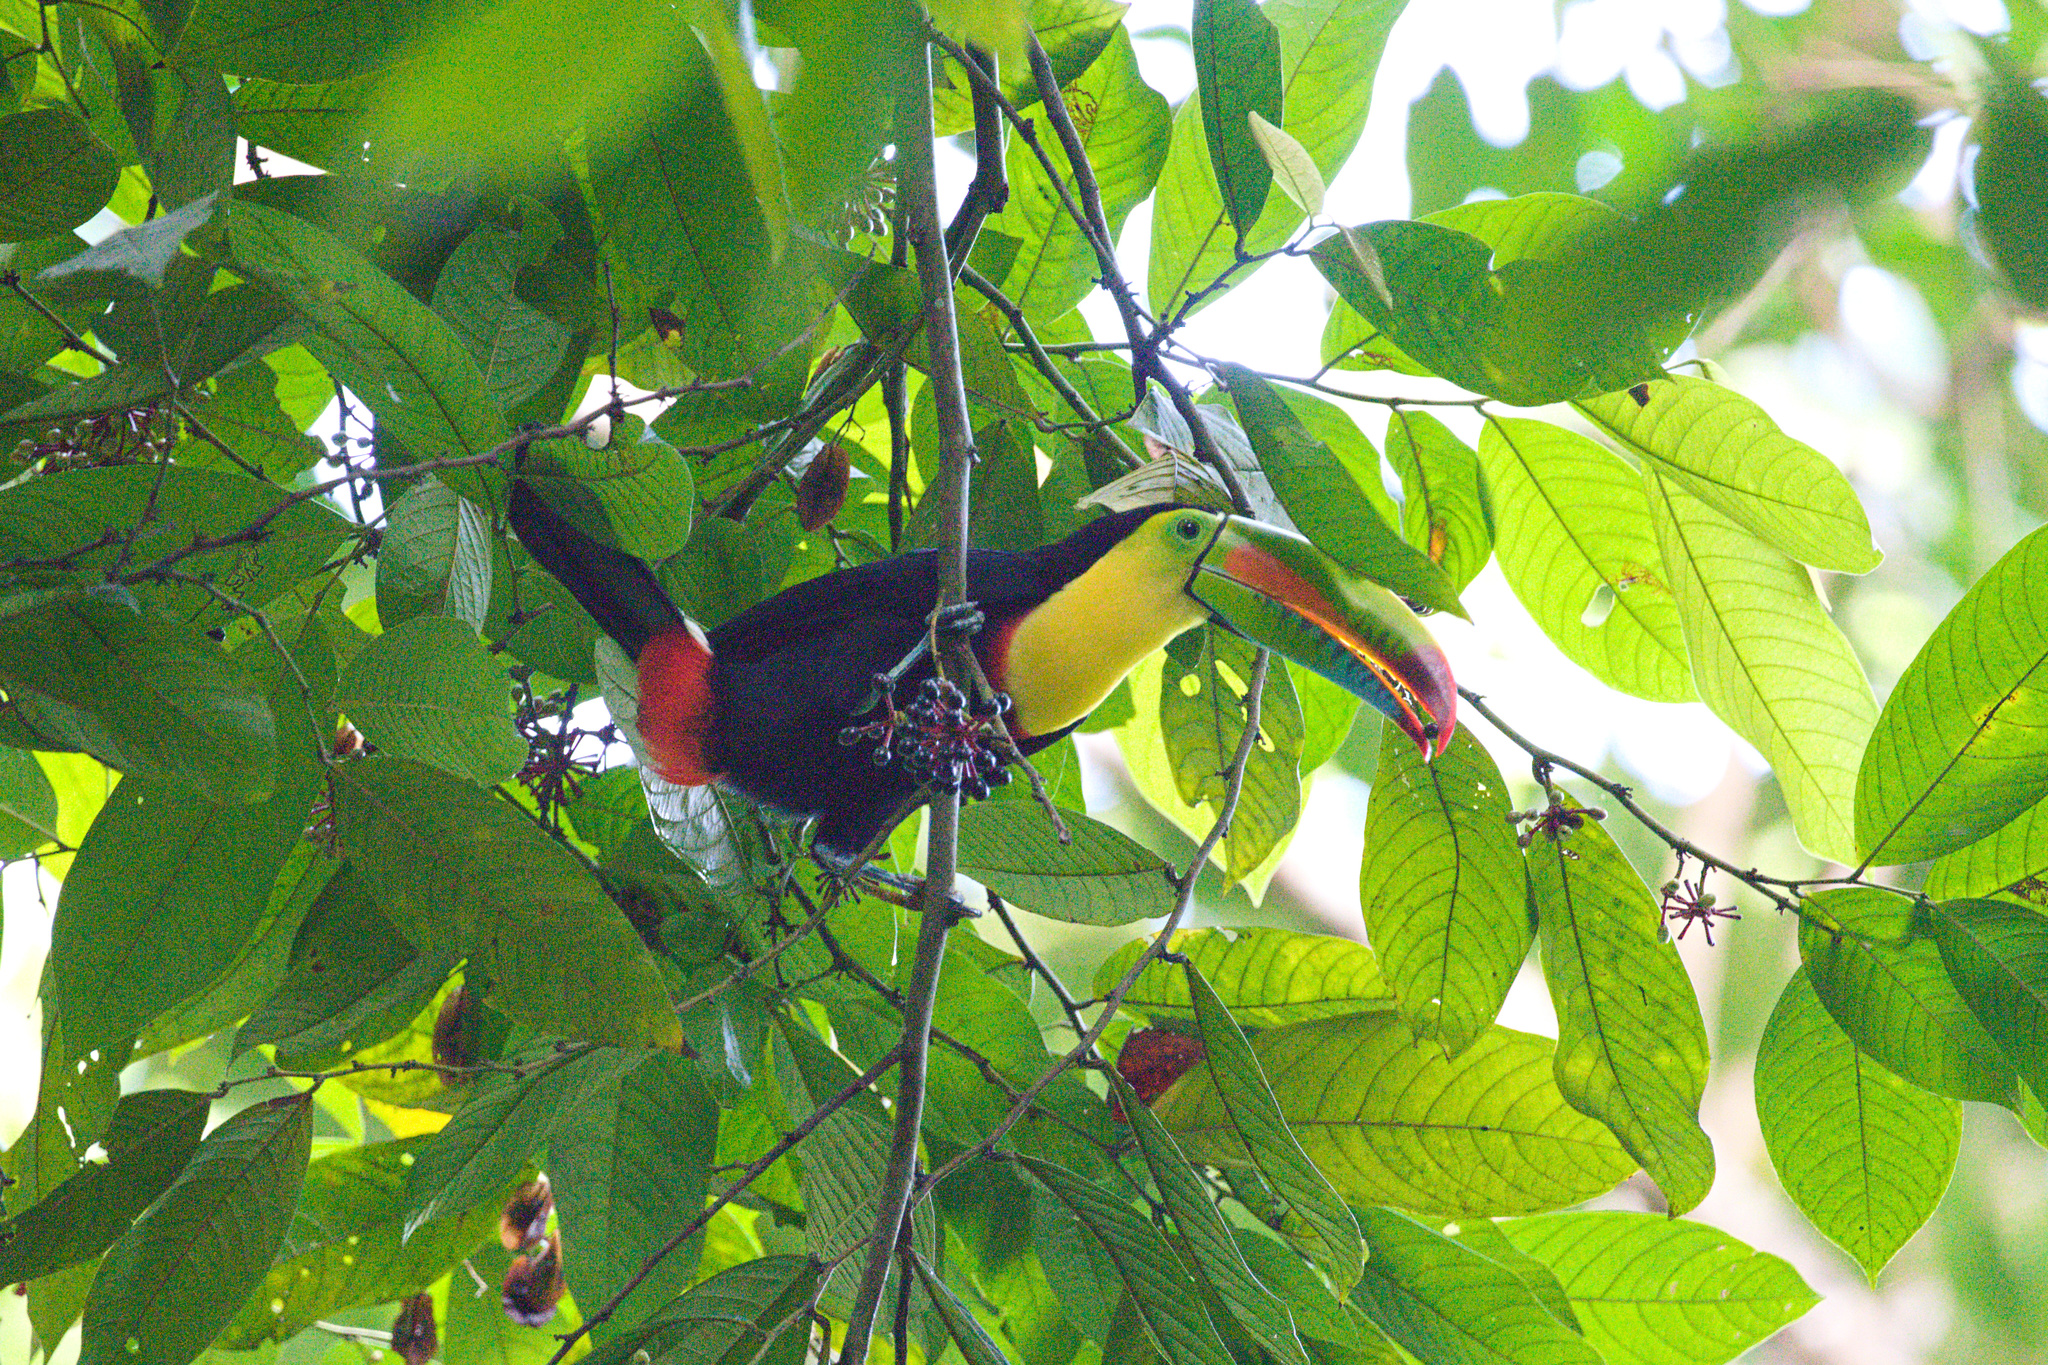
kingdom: Animalia
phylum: Chordata
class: Aves
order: Piciformes
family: Ramphastidae
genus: Ramphastos
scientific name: Ramphastos sulfuratus
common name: Keel-billed toucan
